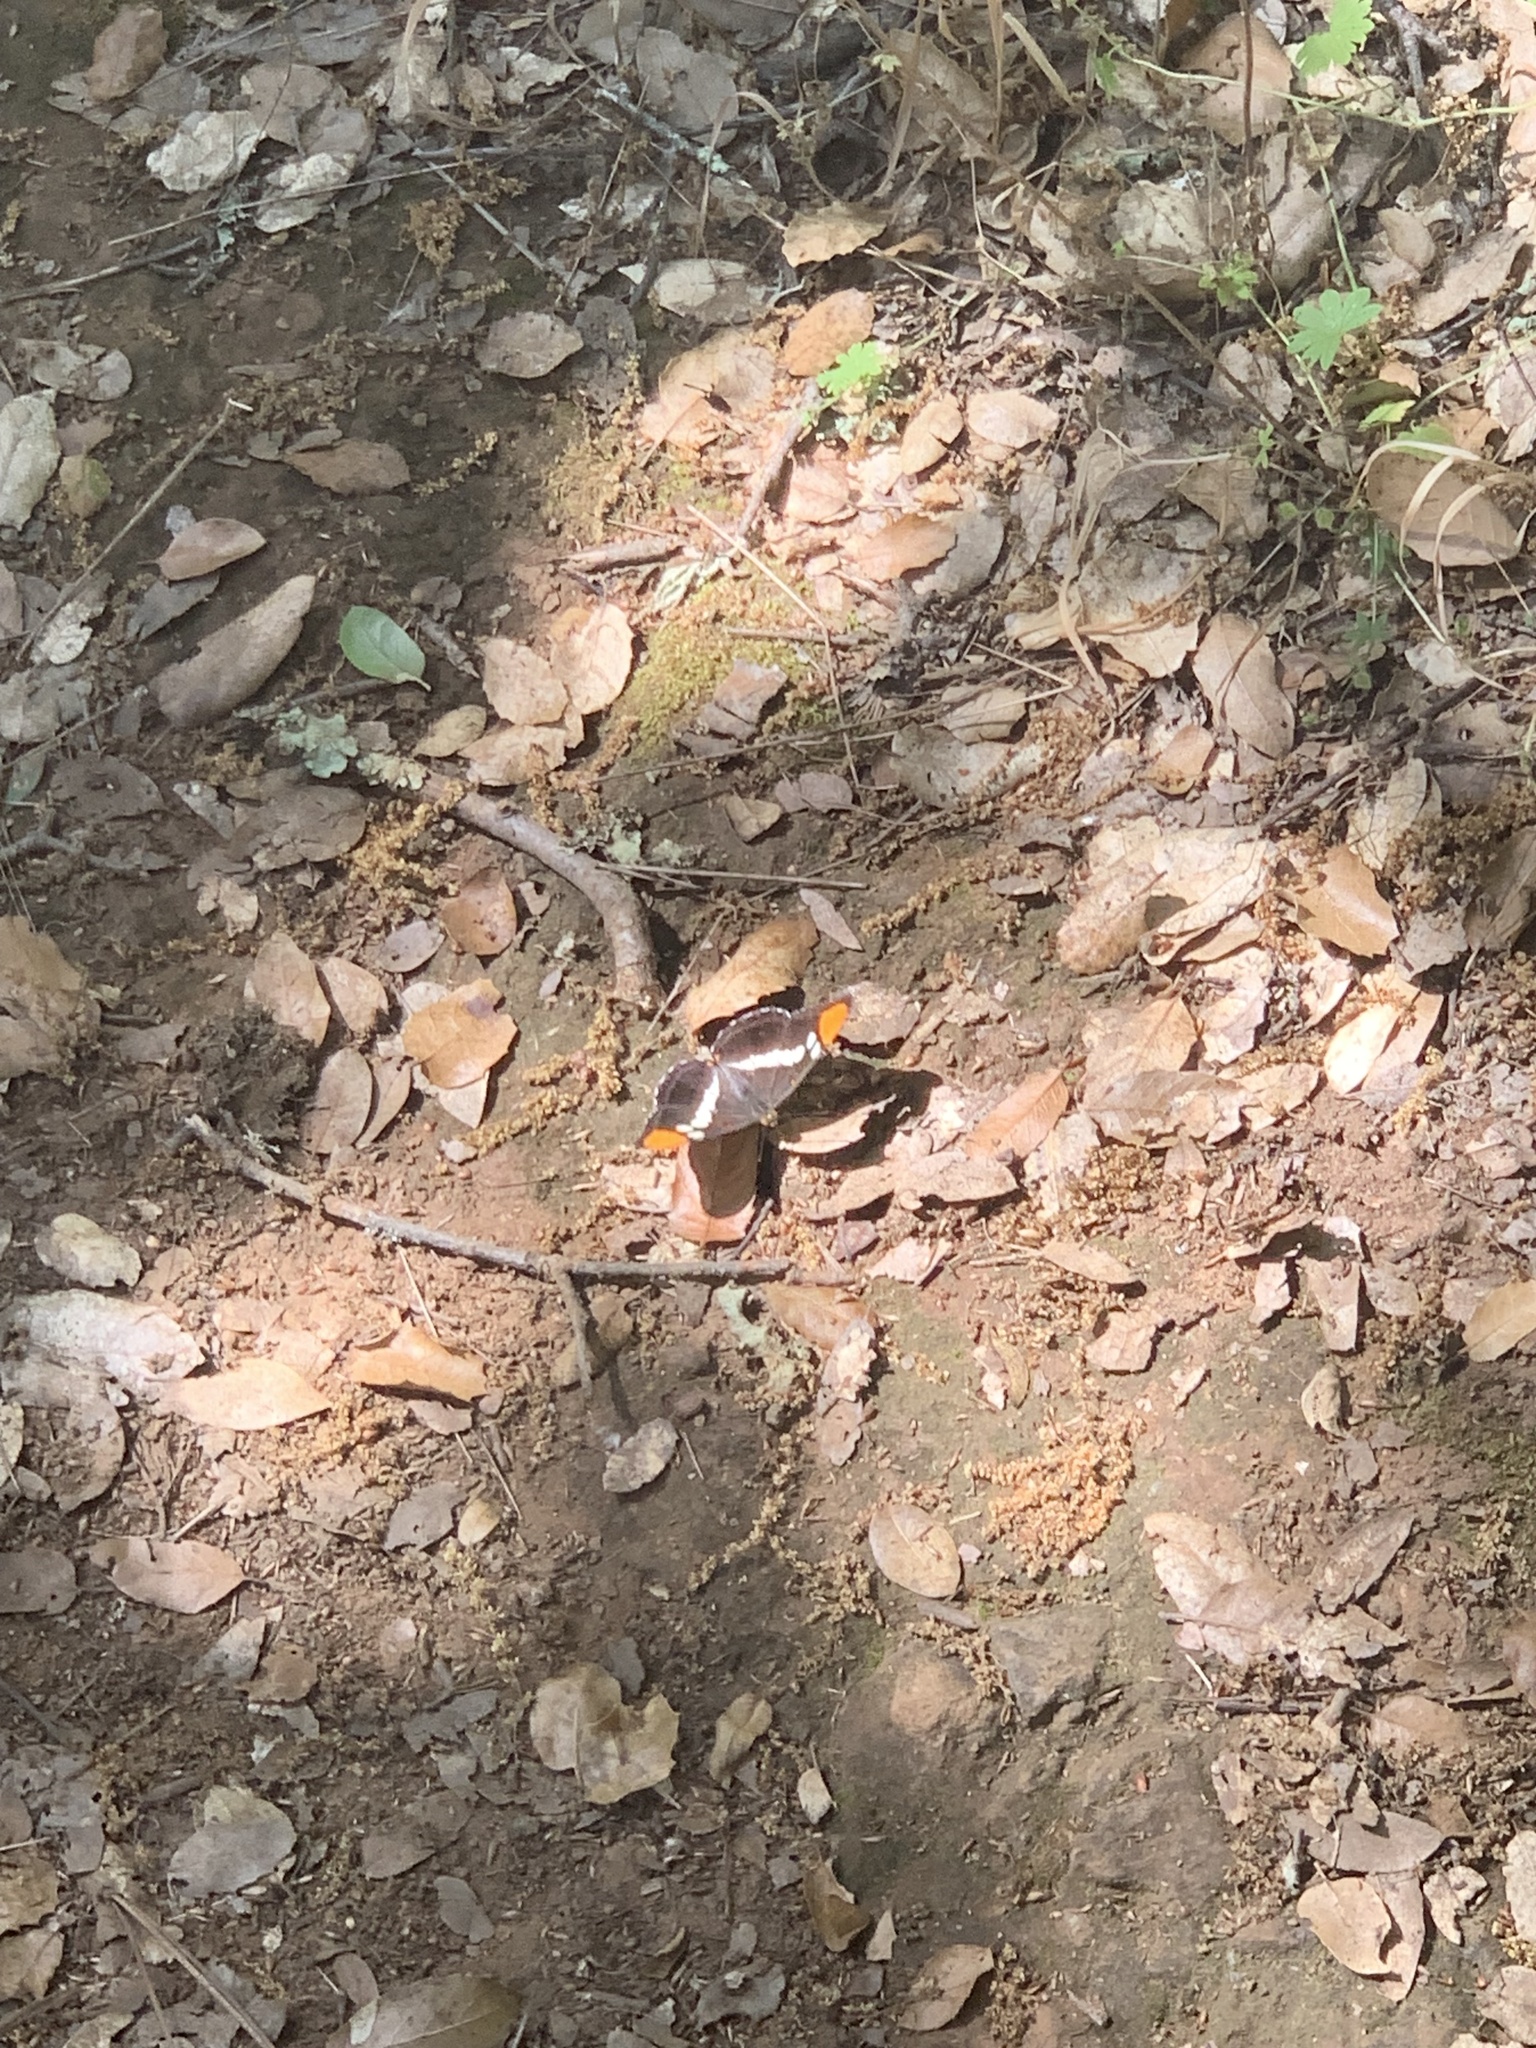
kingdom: Animalia
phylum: Arthropoda
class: Insecta
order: Lepidoptera
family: Nymphalidae
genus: Limenitis
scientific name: Limenitis bredowii
